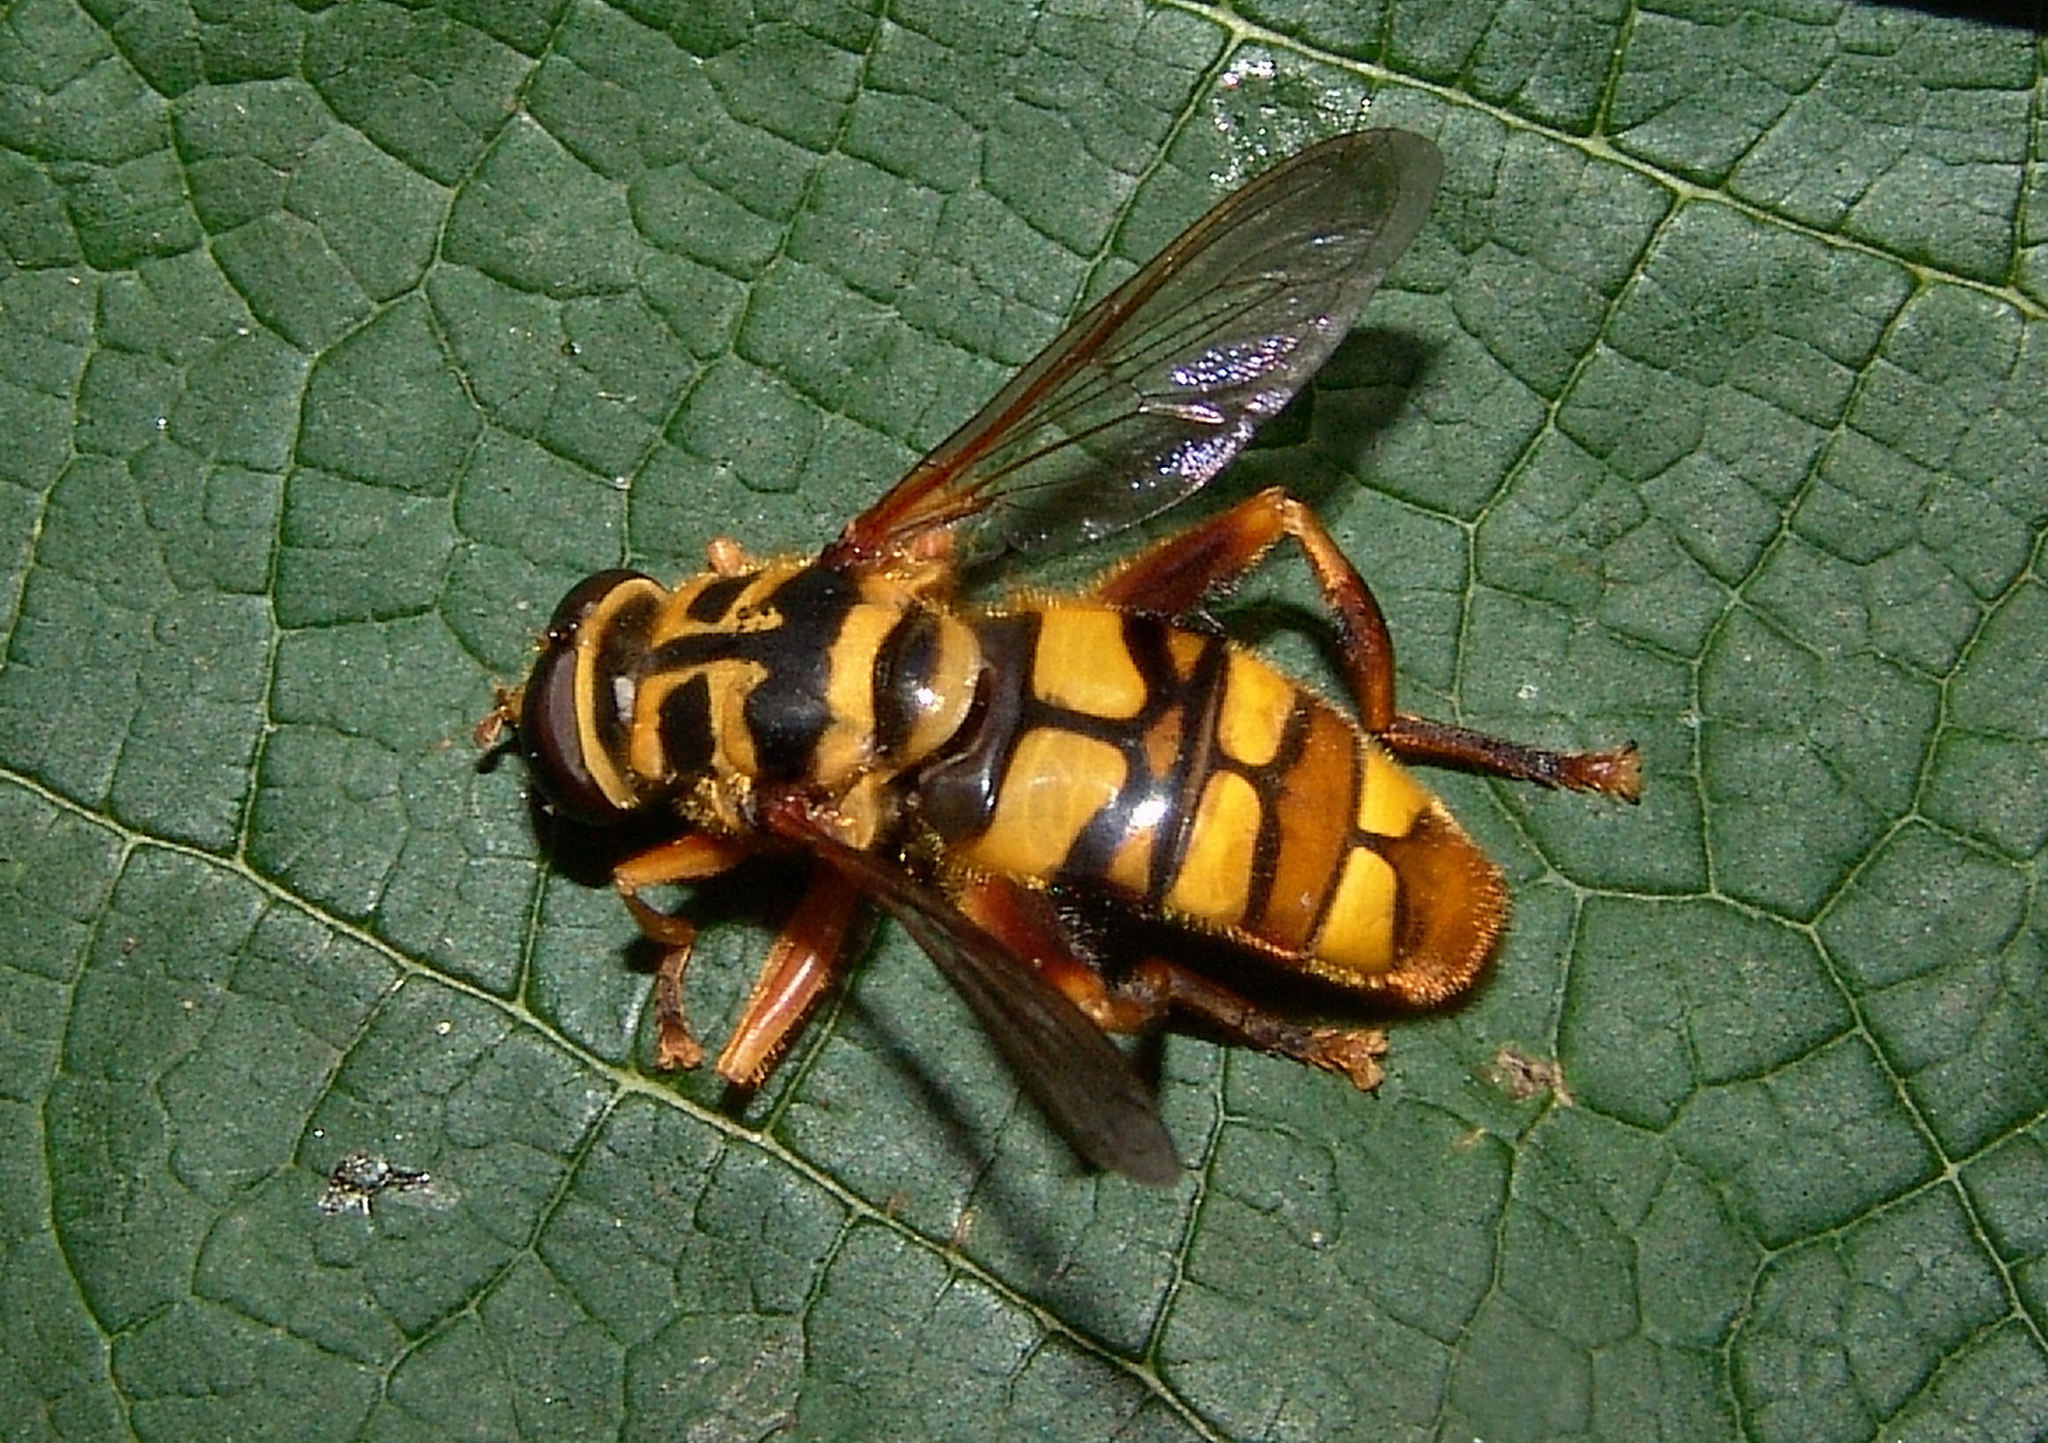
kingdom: Animalia
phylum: Arthropoda
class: Insecta
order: Diptera
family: Syrphidae
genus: Milesia
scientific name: Milesia virginiensis
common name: Virginia giant
